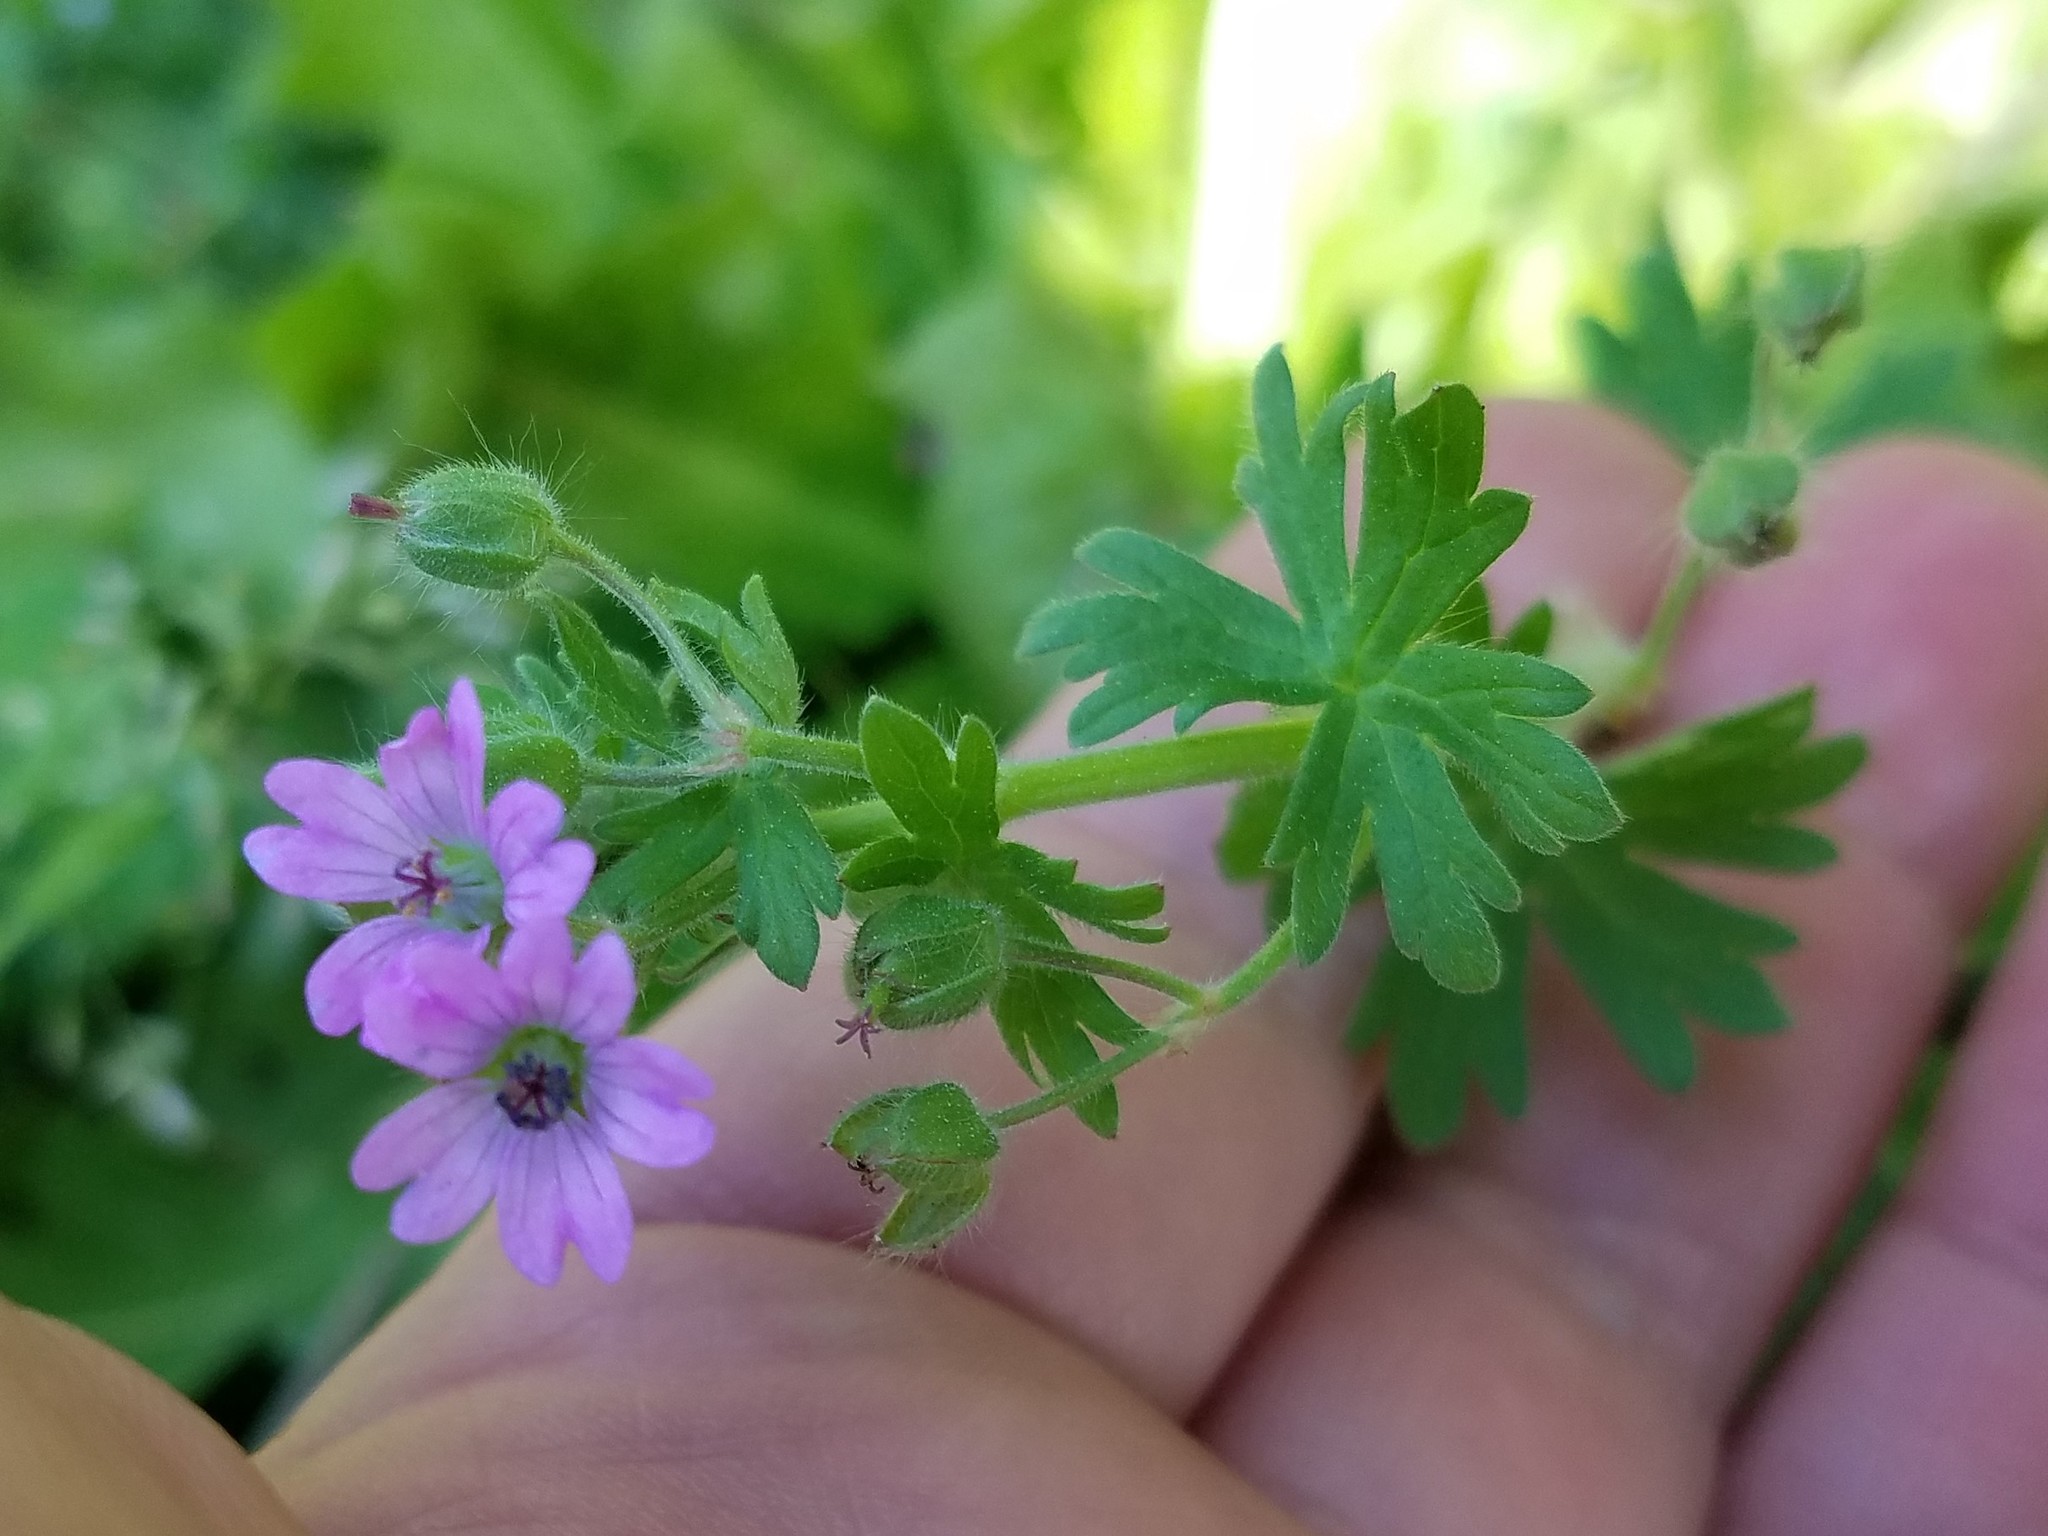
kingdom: Plantae
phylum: Tracheophyta
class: Magnoliopsida
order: Geraniales
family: Geraniaceae
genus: Geranium
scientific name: Geranium molle
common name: Dove's-foot crane's-bill
